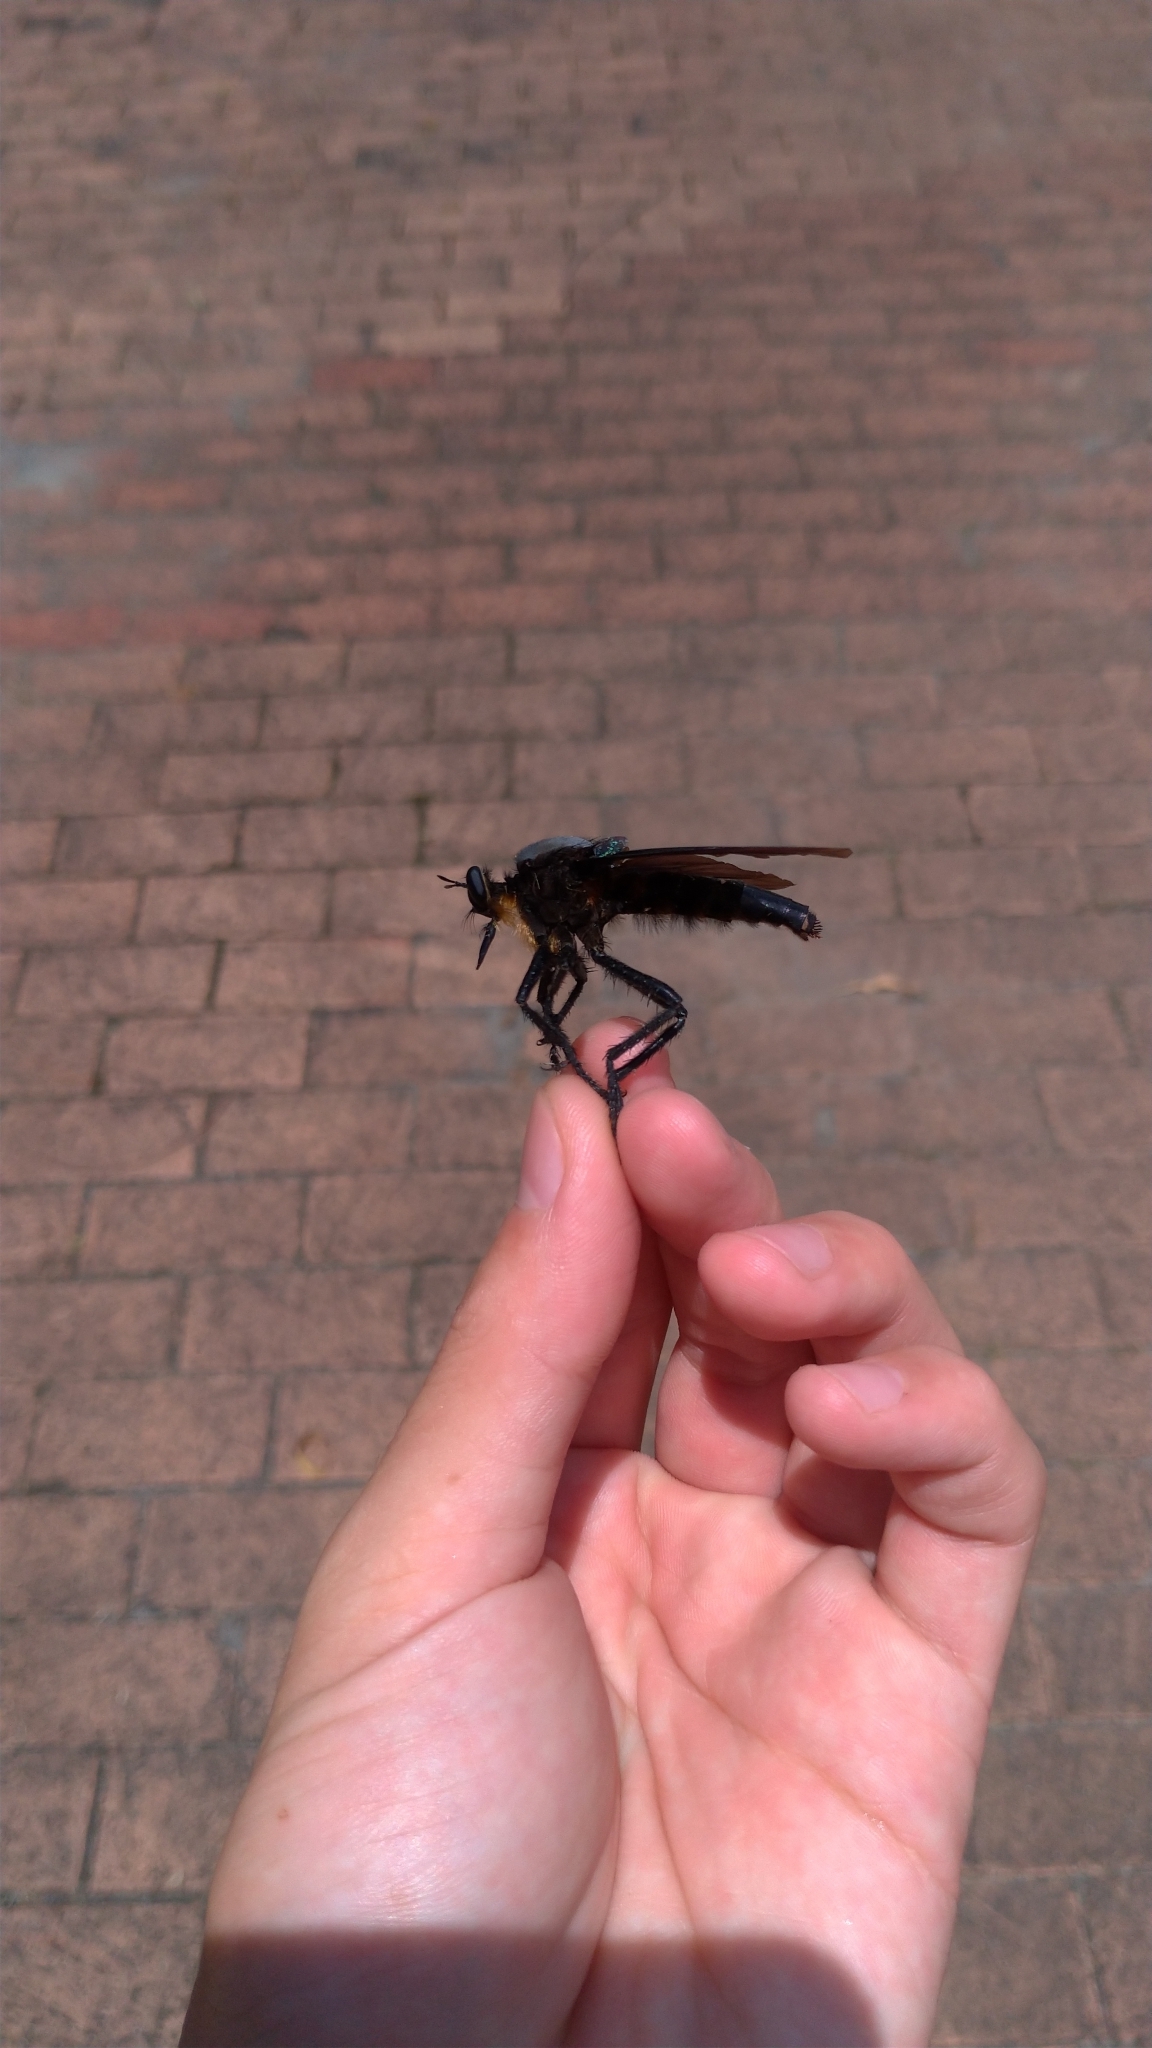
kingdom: Animalia
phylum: Arthropoda
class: Insecta
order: Diptera
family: Asilidae
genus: Microstylum
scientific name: Microstylum oberthurii
